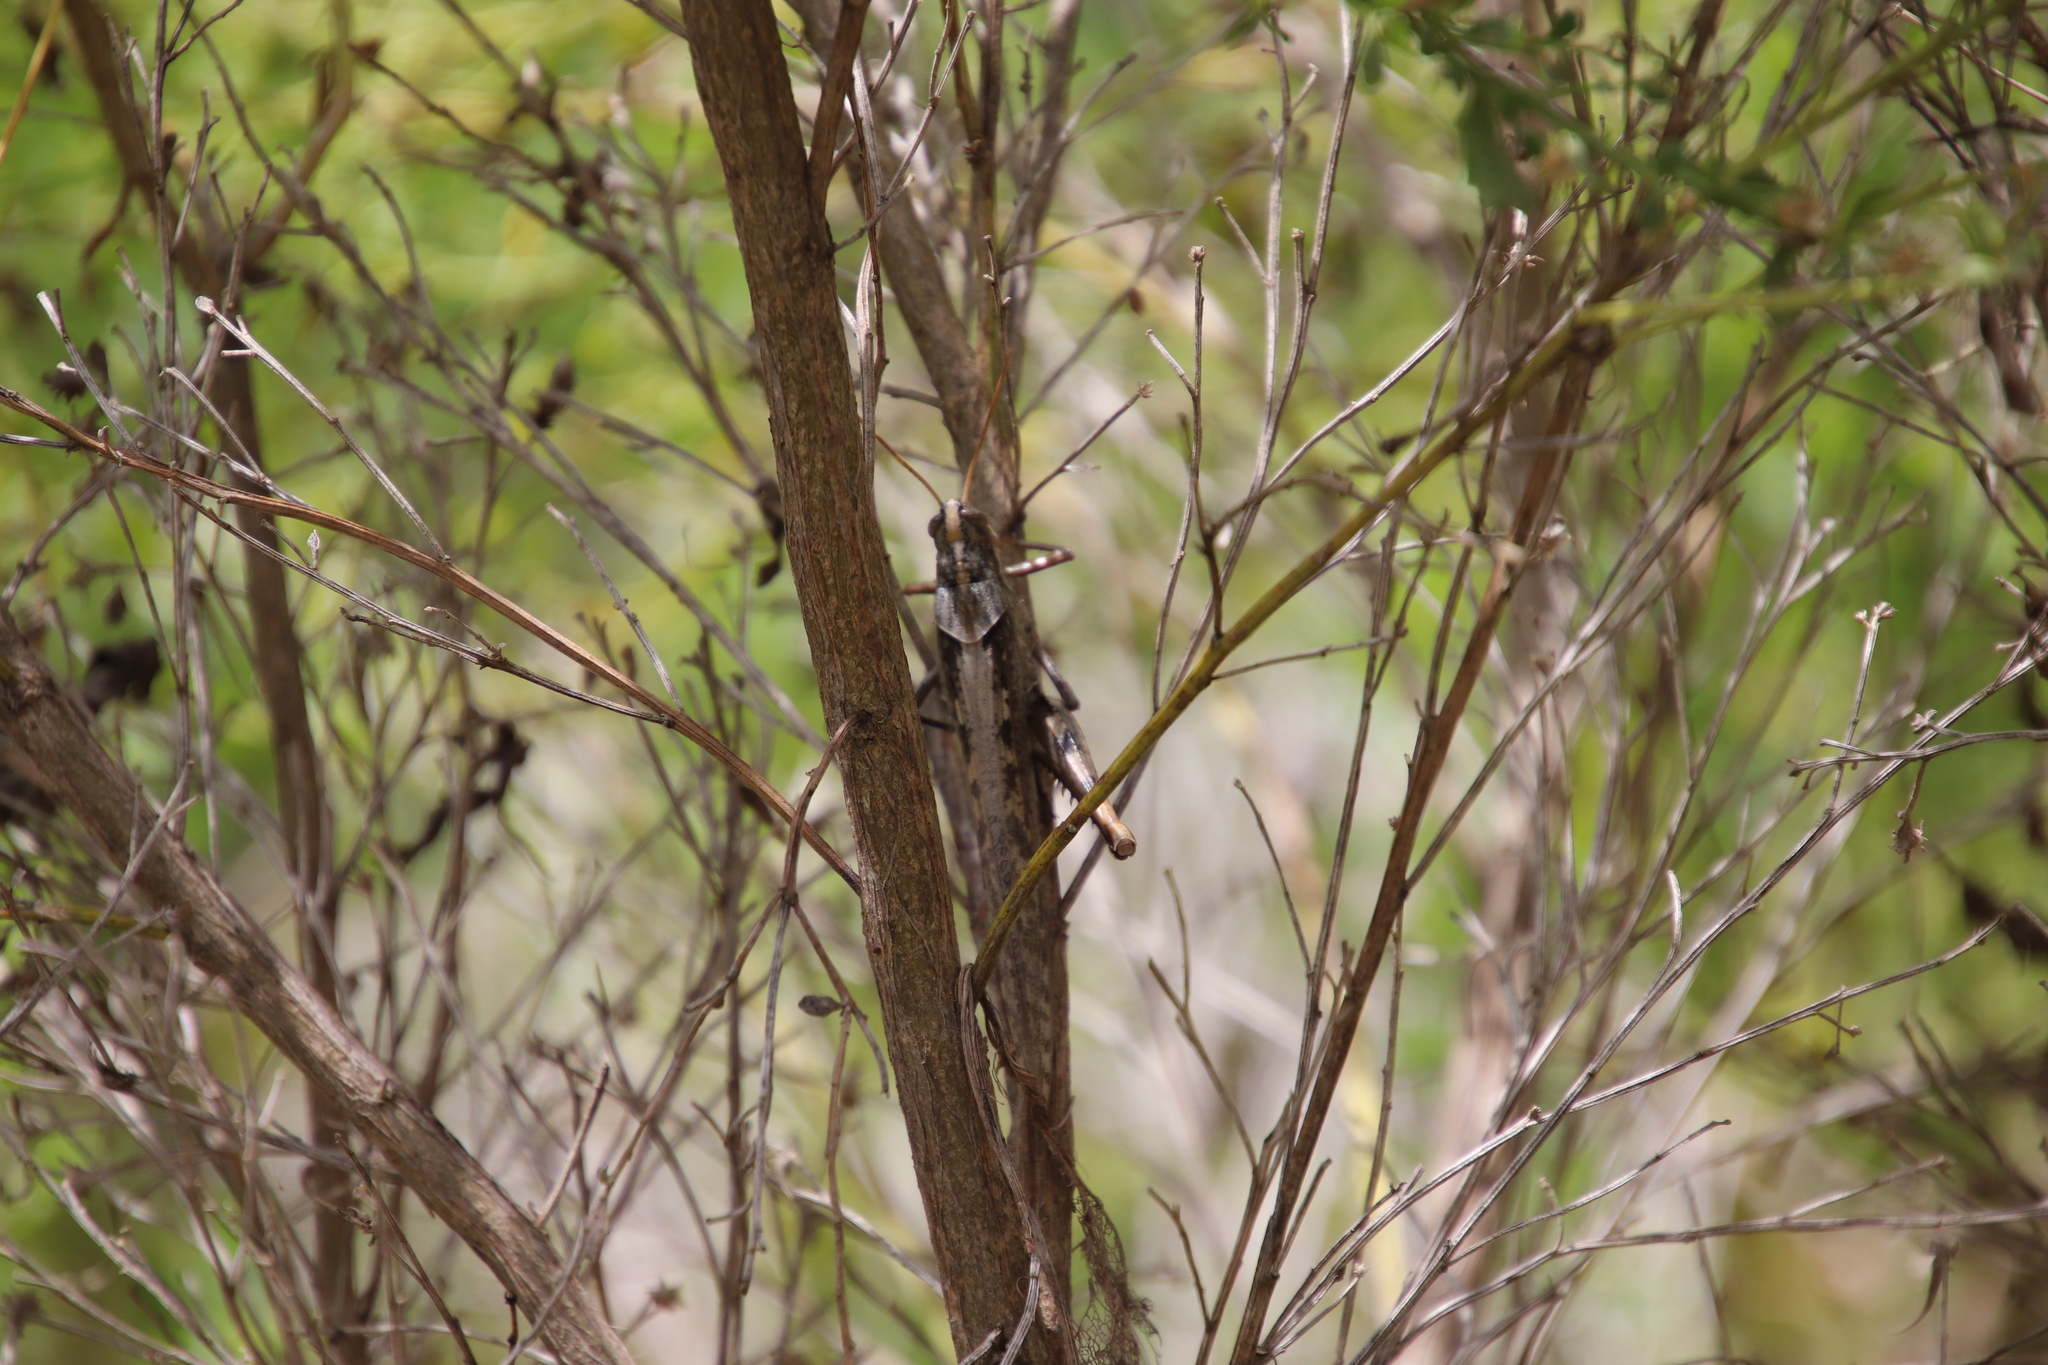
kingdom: Animalia
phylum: Arthropoda
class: Insecta
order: Orthoptera
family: Acrididae
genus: Schistocerca
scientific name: Schistocerca nitens
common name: Vagrant grasshopper
